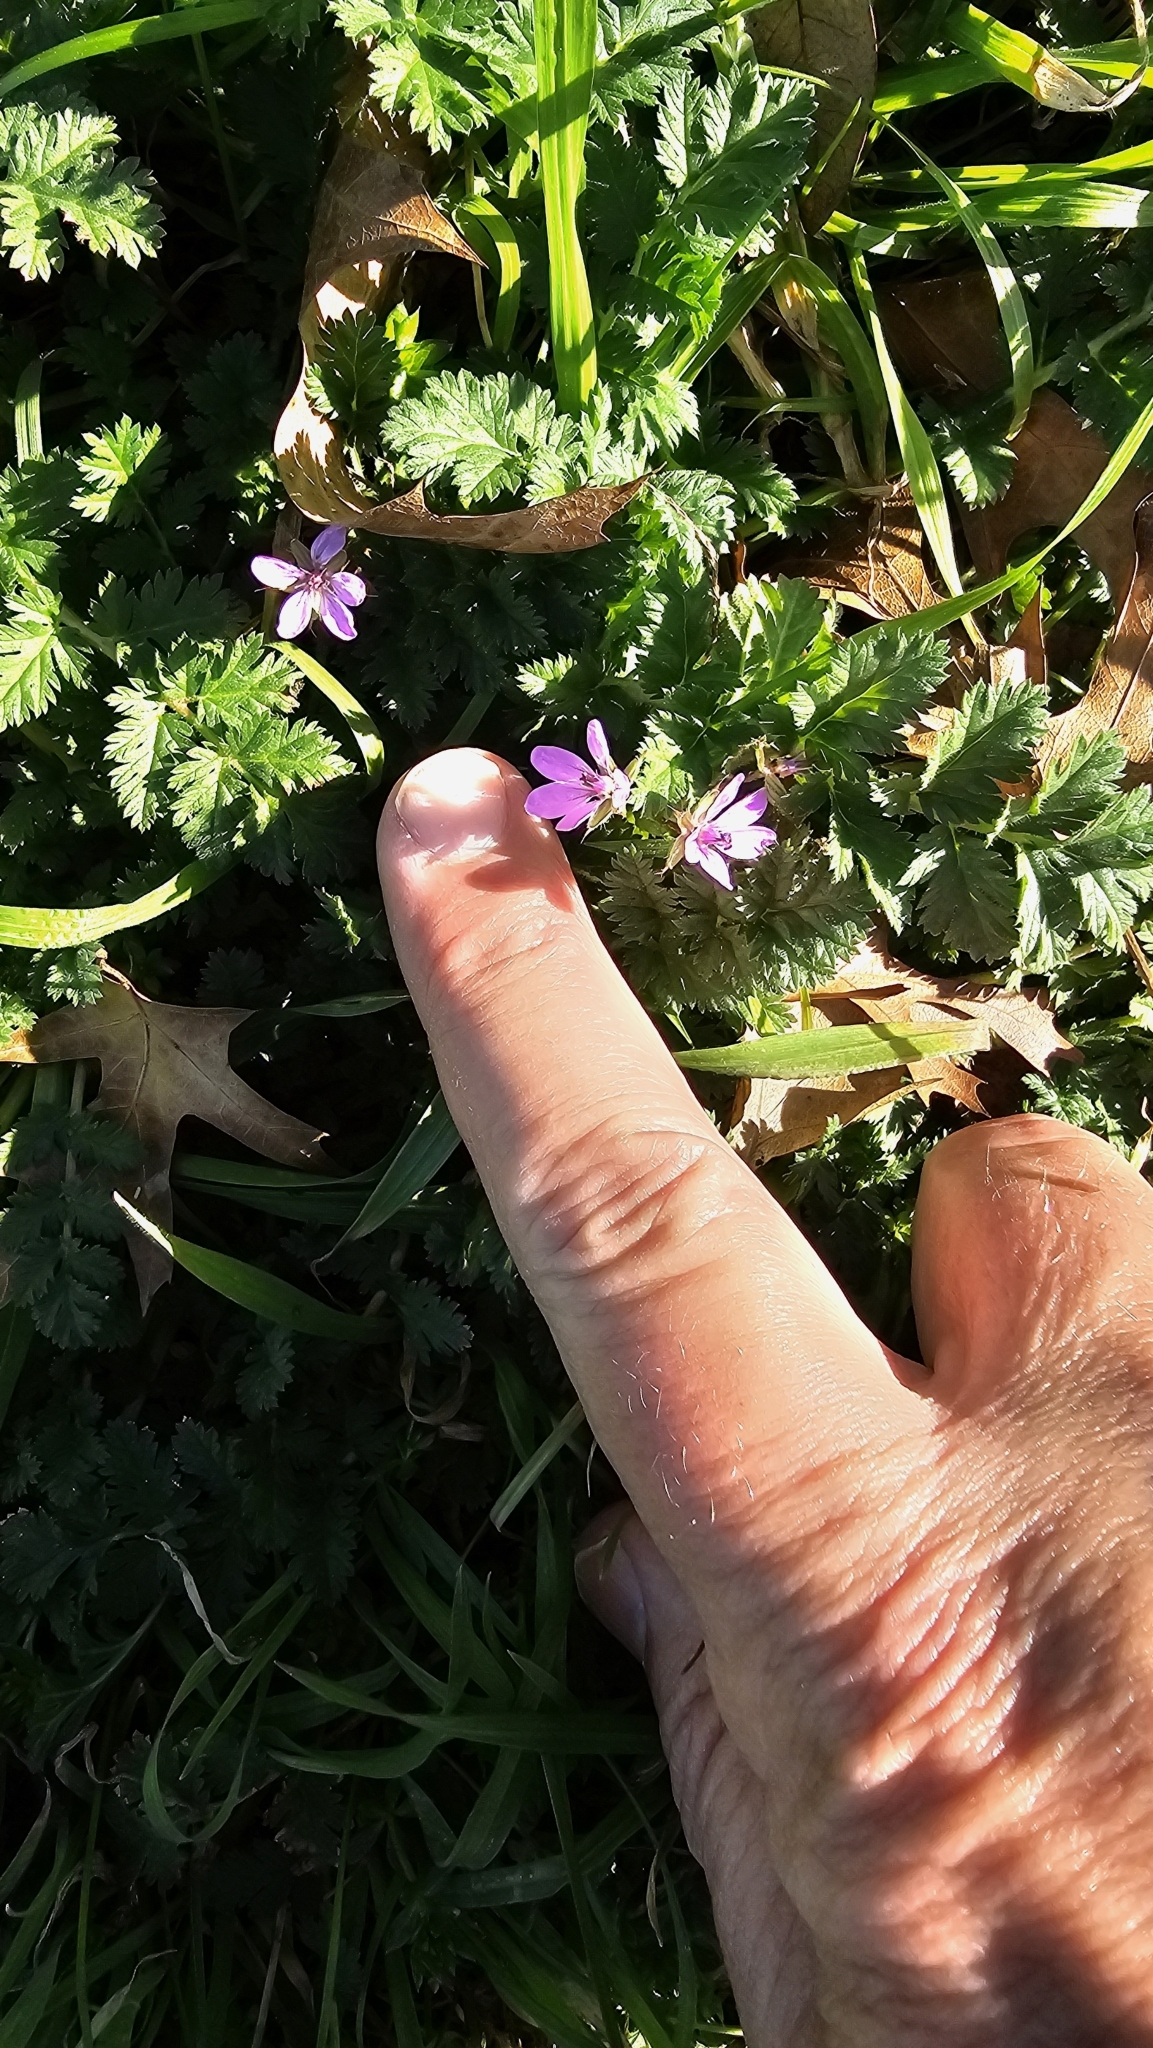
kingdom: Plantae
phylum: Tracheophyta
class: Magnoliopsida
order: Geraniales
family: Geraniaceae
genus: Erodium
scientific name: Erodium cicutarium
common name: Common stork's-bill
